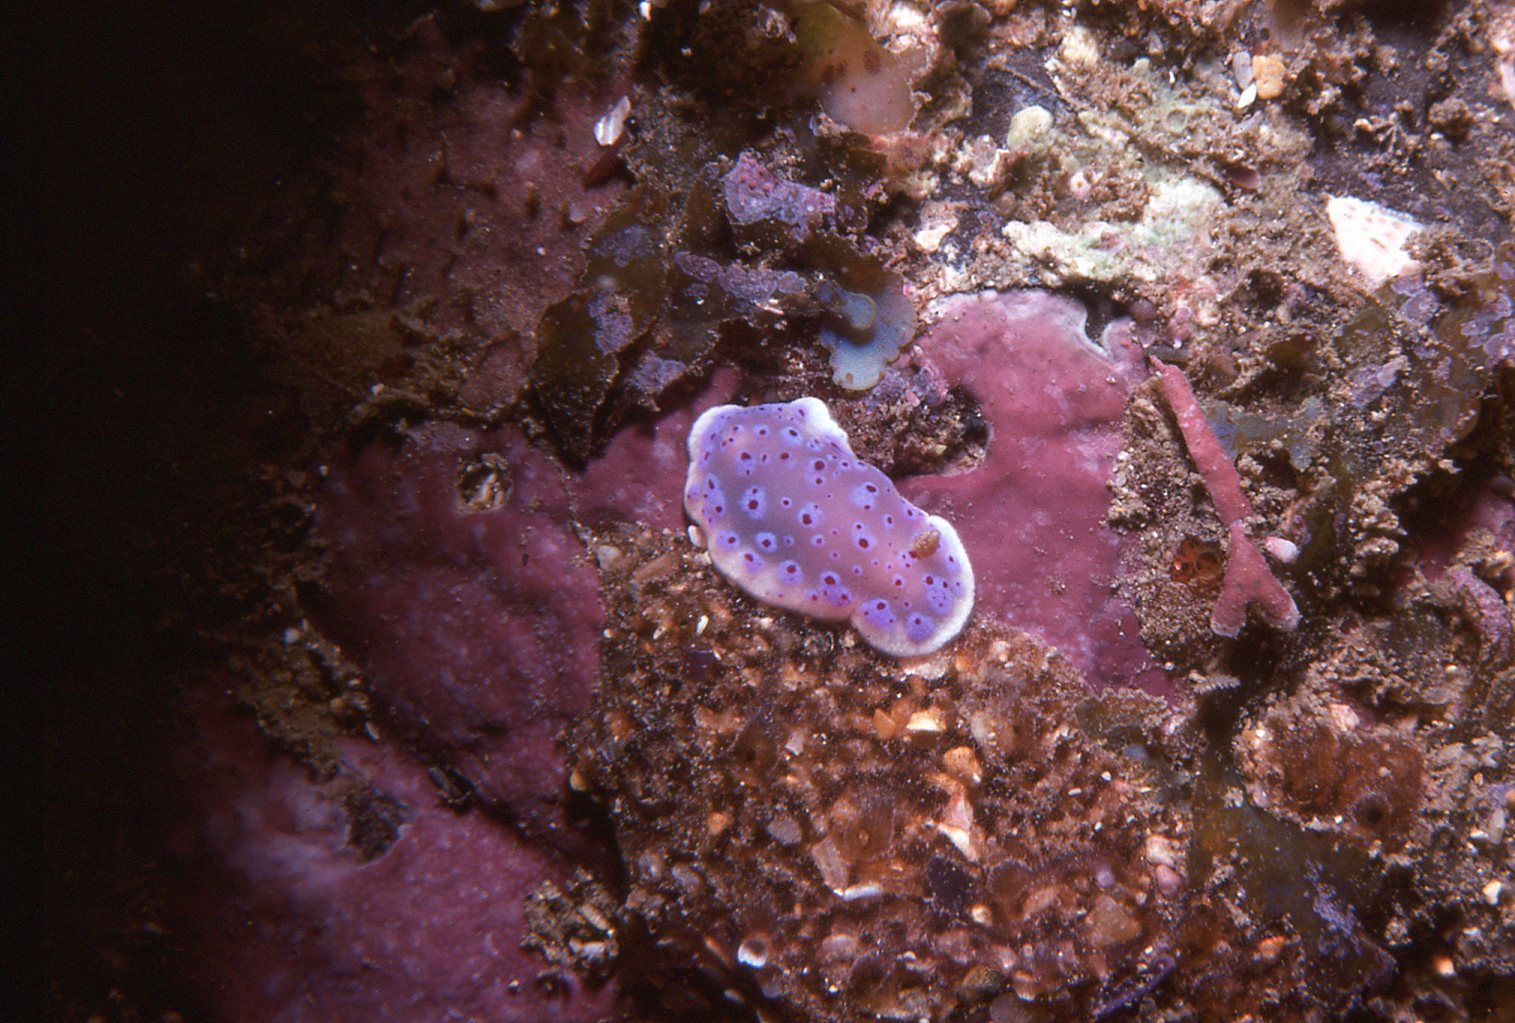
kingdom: Animalia
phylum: Mollusca
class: Gastropoda
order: Nudibranchia
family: Chromodorididae
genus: Goniobranchus
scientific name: Goniobranchus thompsoni
